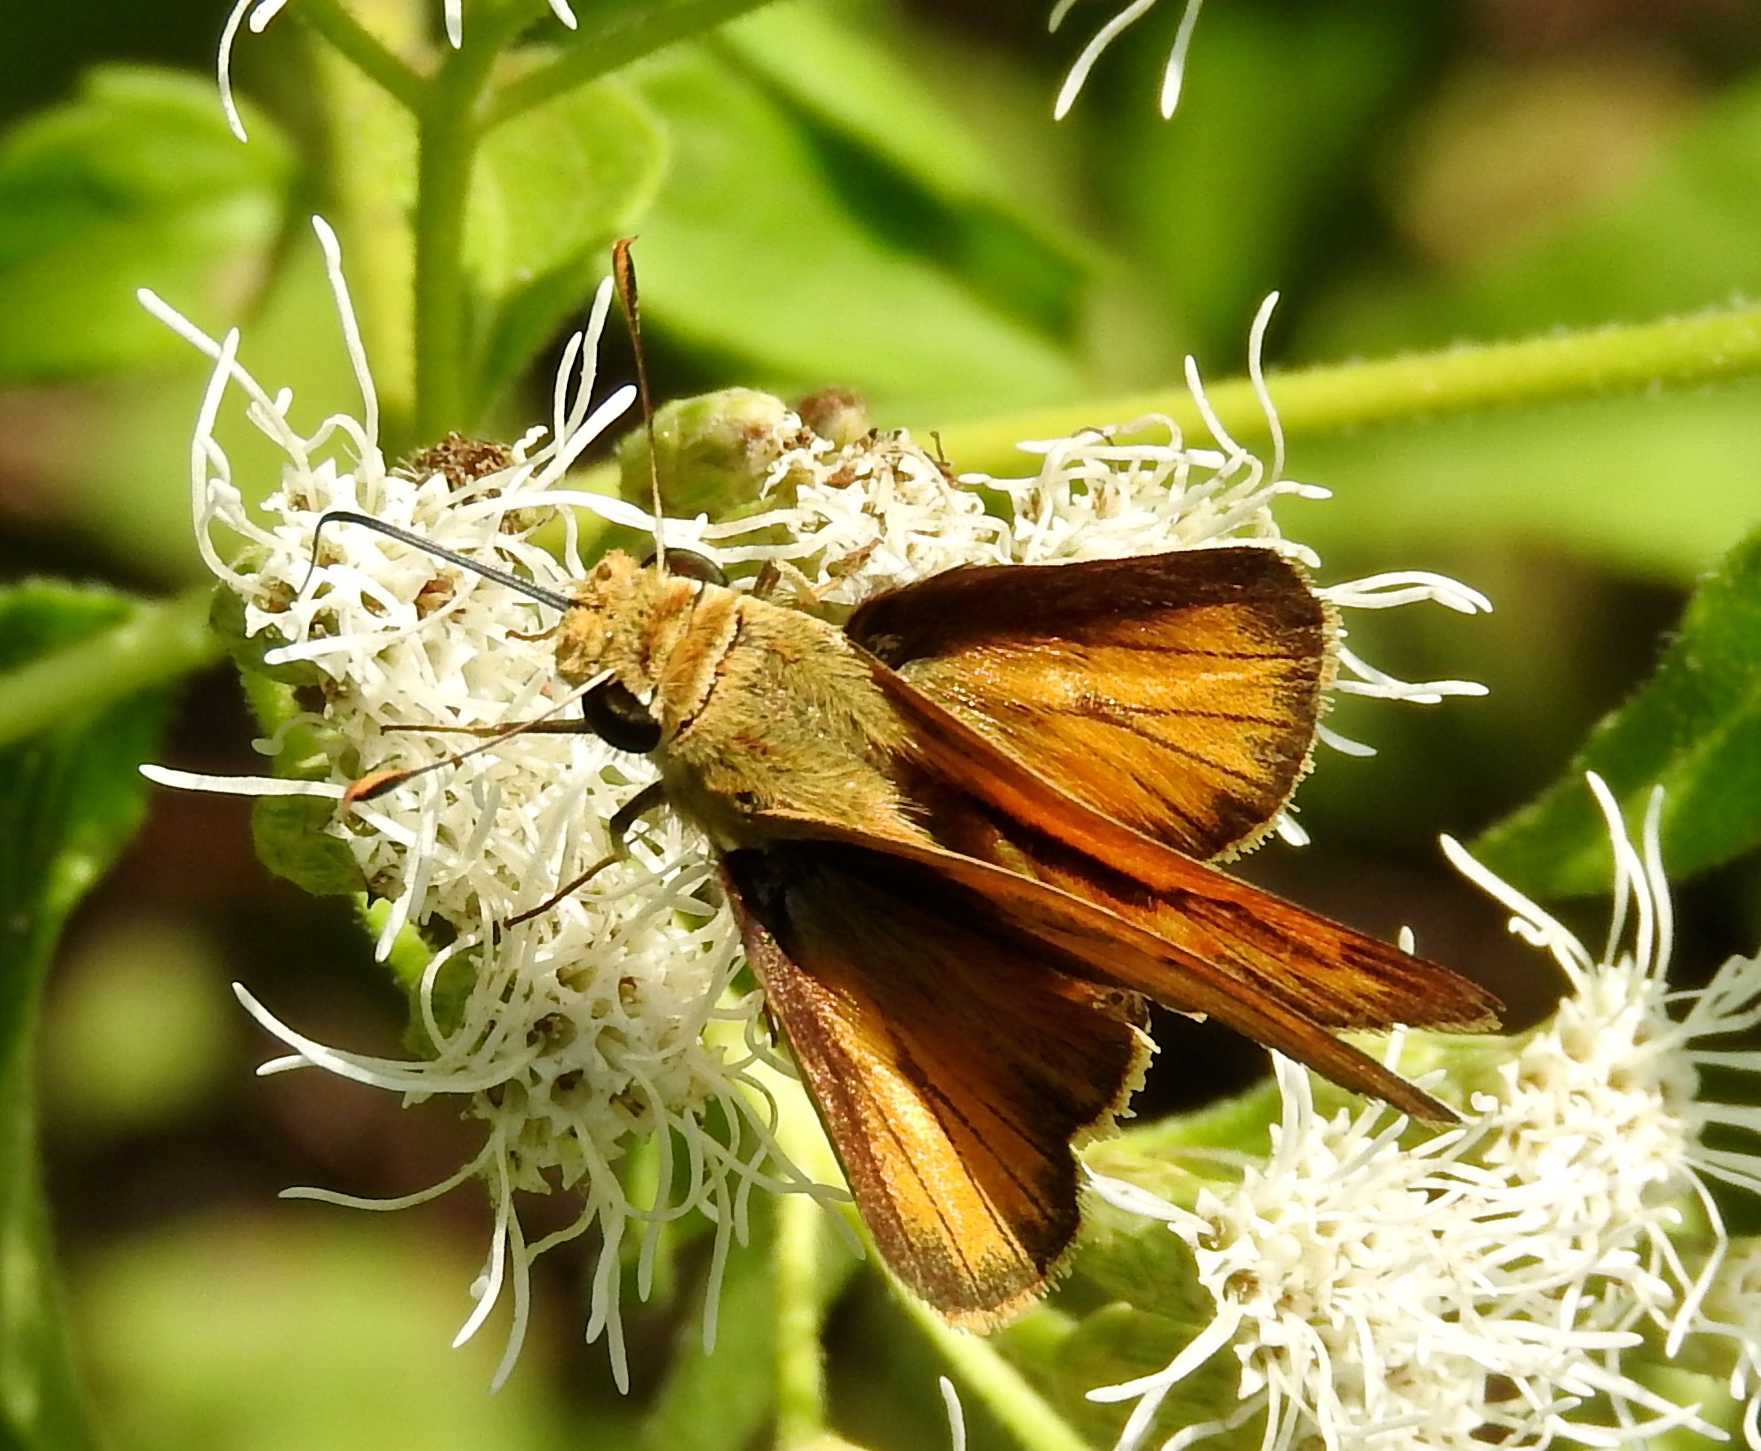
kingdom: Animalia
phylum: Arthropoda
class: Insecta
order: Lepidoptera
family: Hesperiidae
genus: Polites
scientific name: Polites vibex
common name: Whirlabout
